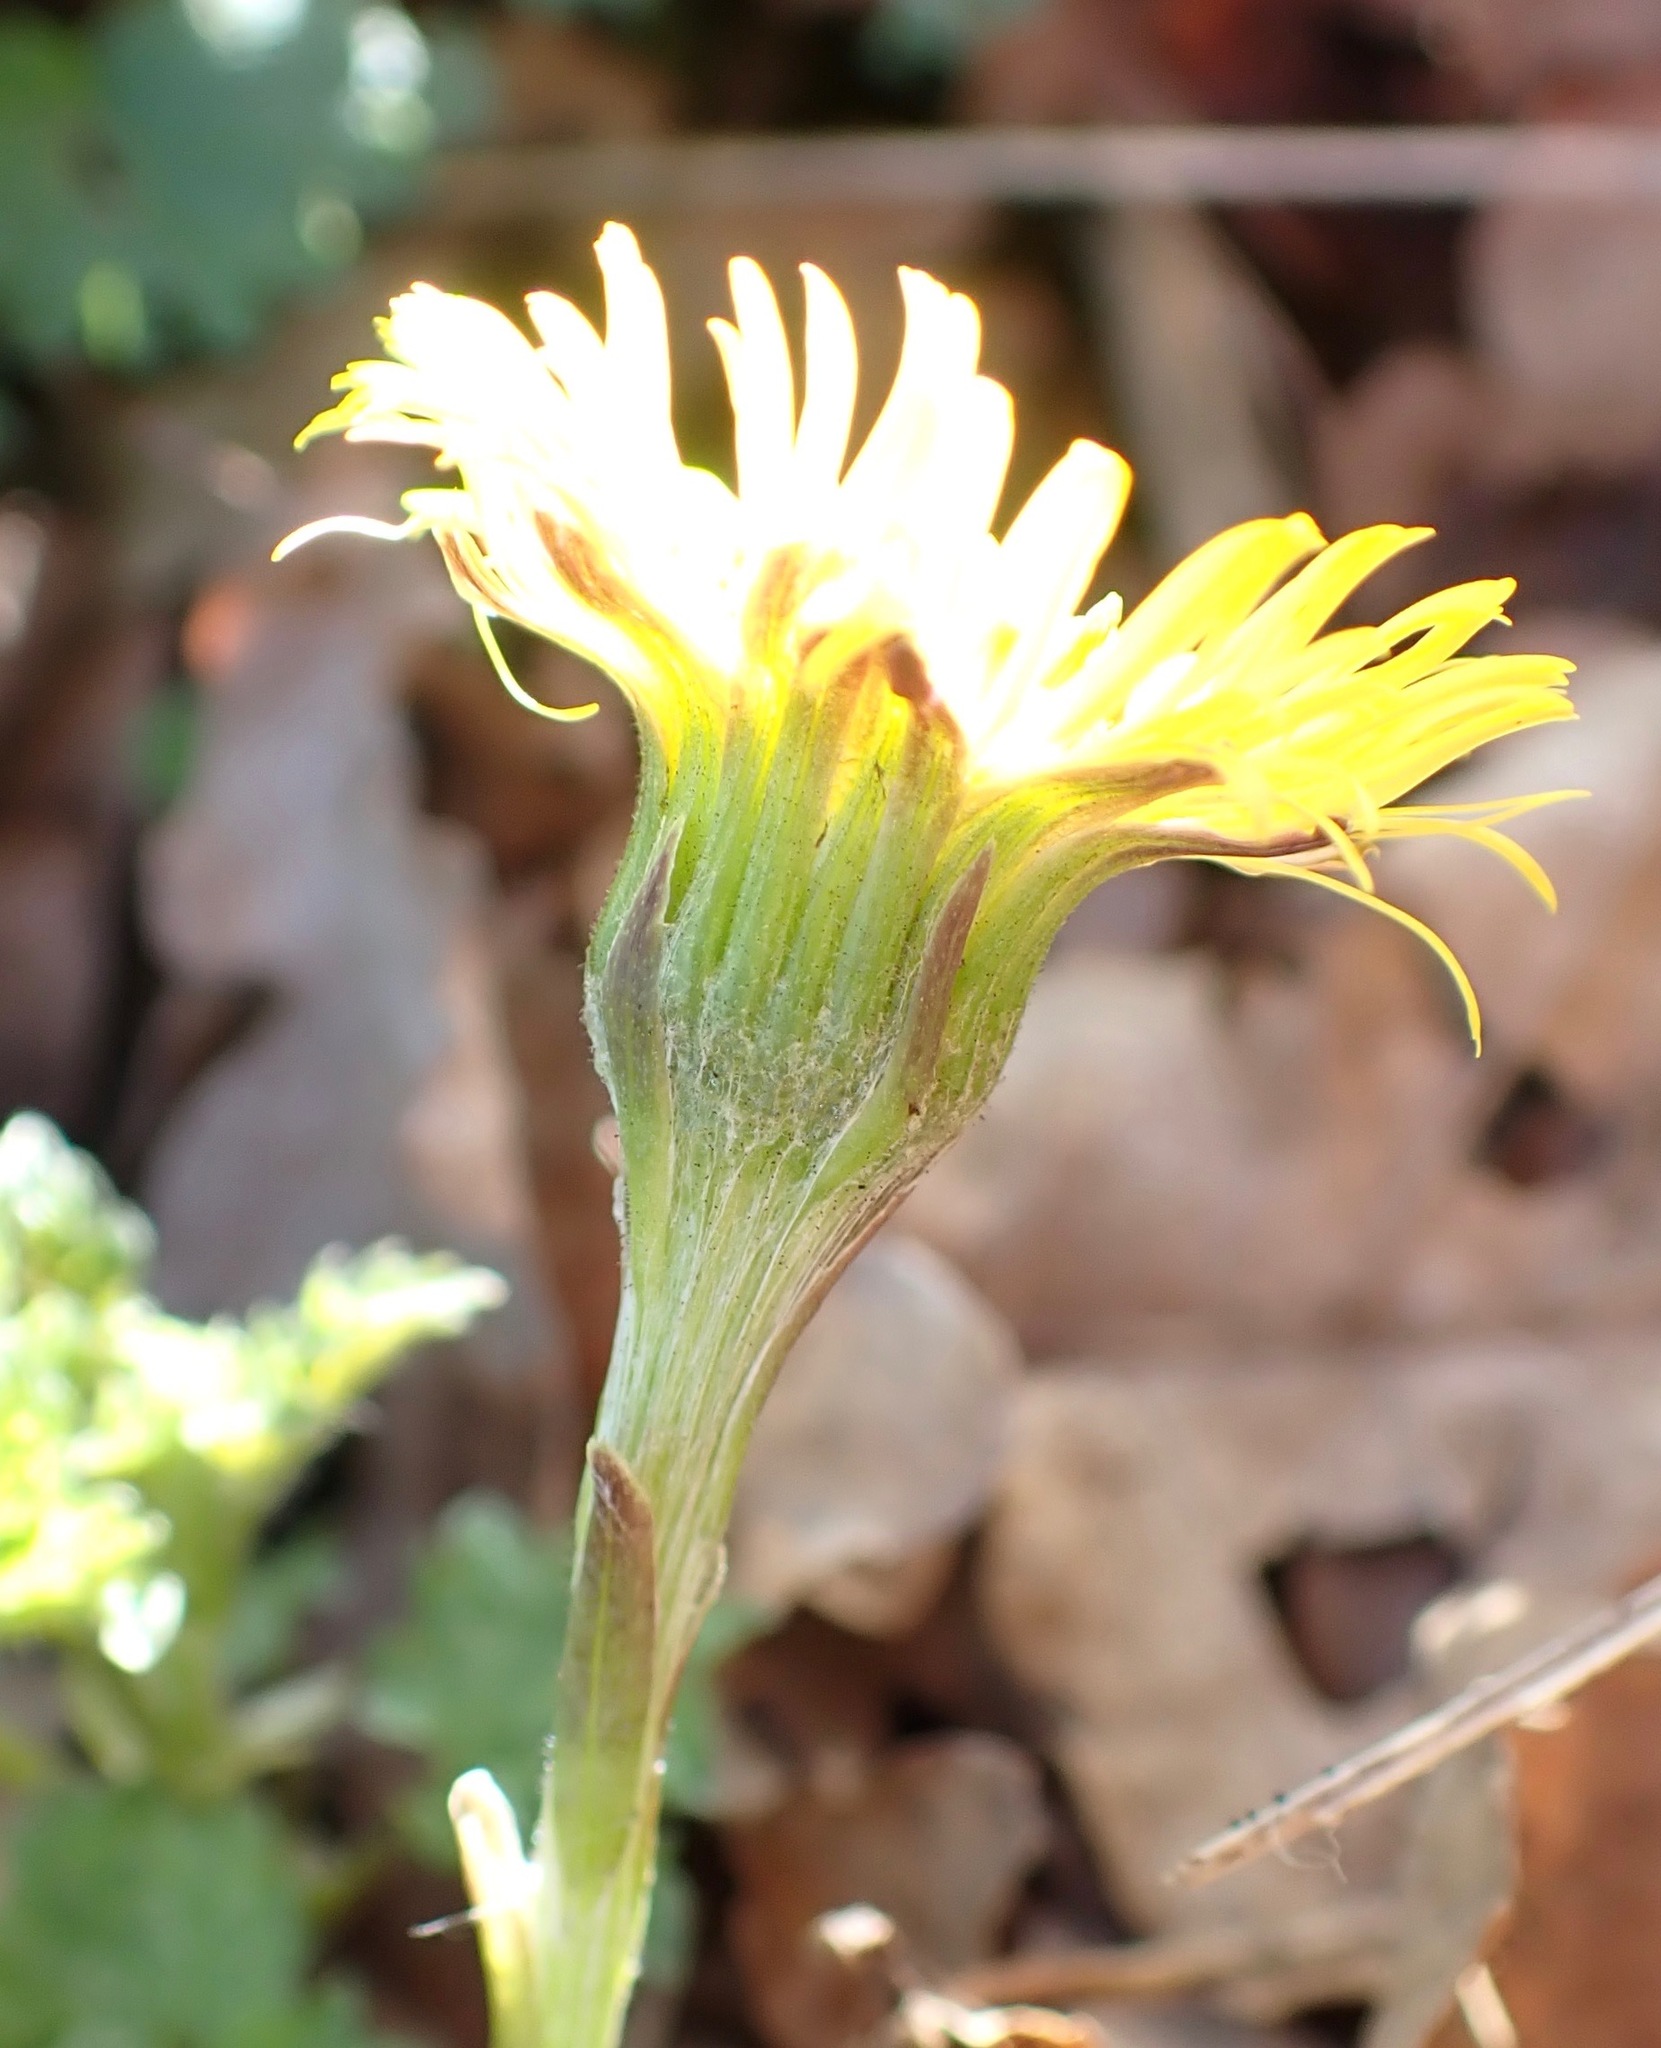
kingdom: Plantae
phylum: Tracheophyta
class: Magnoliopsida
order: Asterales
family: Asteraceae
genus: Tussilago
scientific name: Tussilago farfara
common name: Coltsfoot
